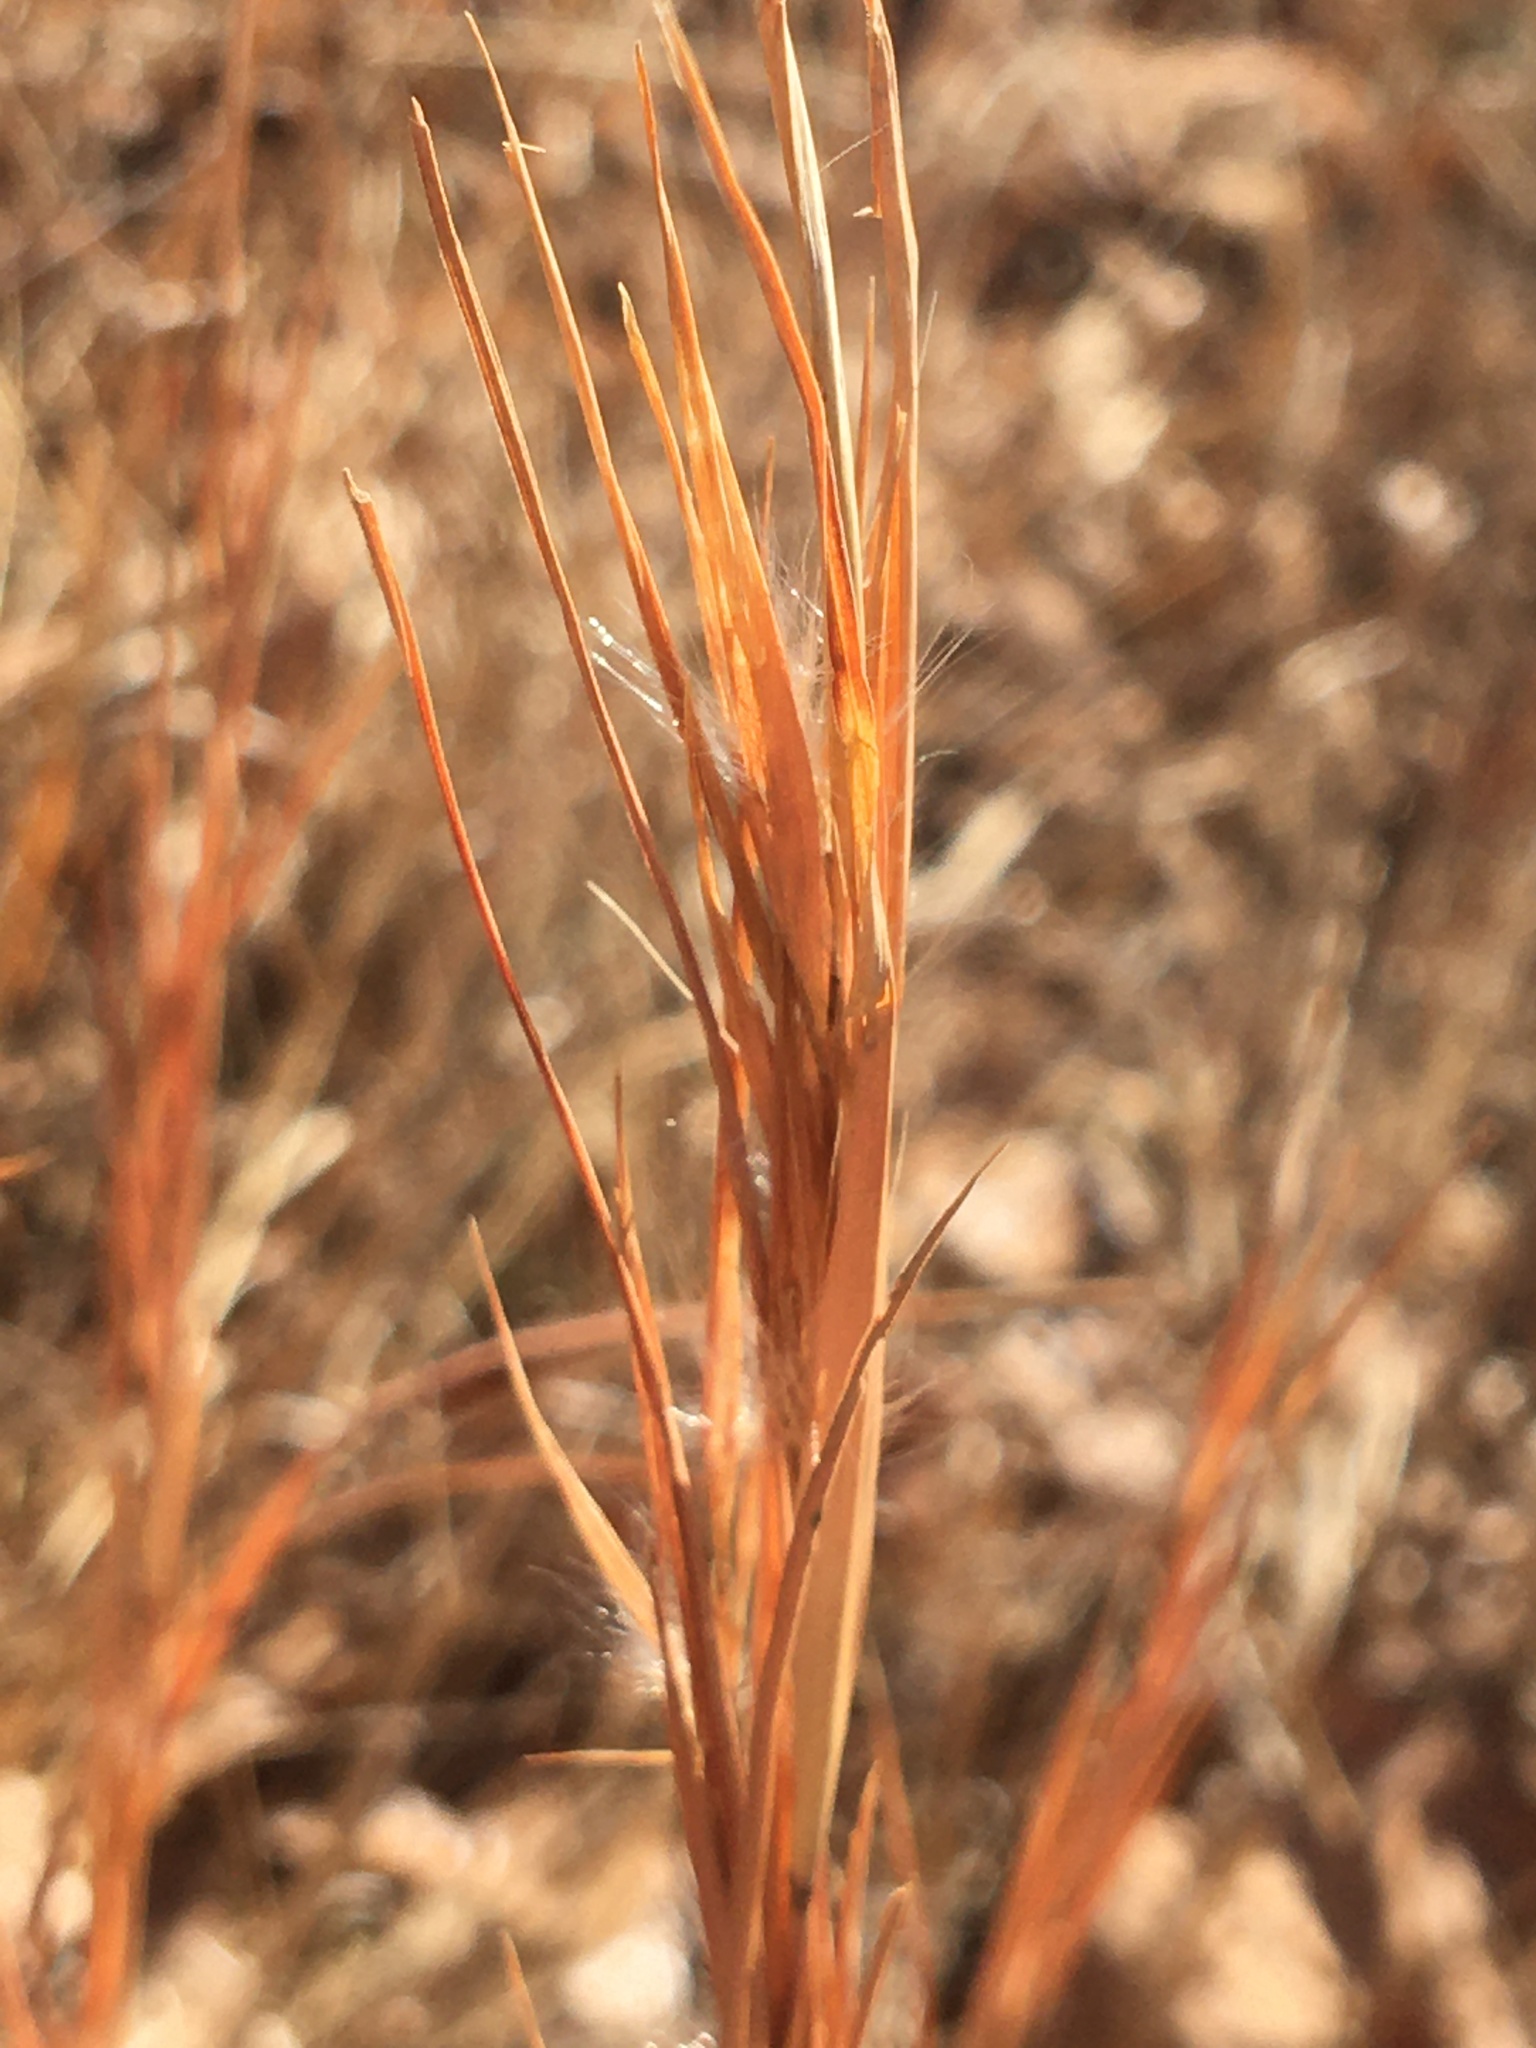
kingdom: Plantae
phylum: Tracheophyta
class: Liliopsida
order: Poales
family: Poaceae
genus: Andropogon
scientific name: Andropogon gyrans
